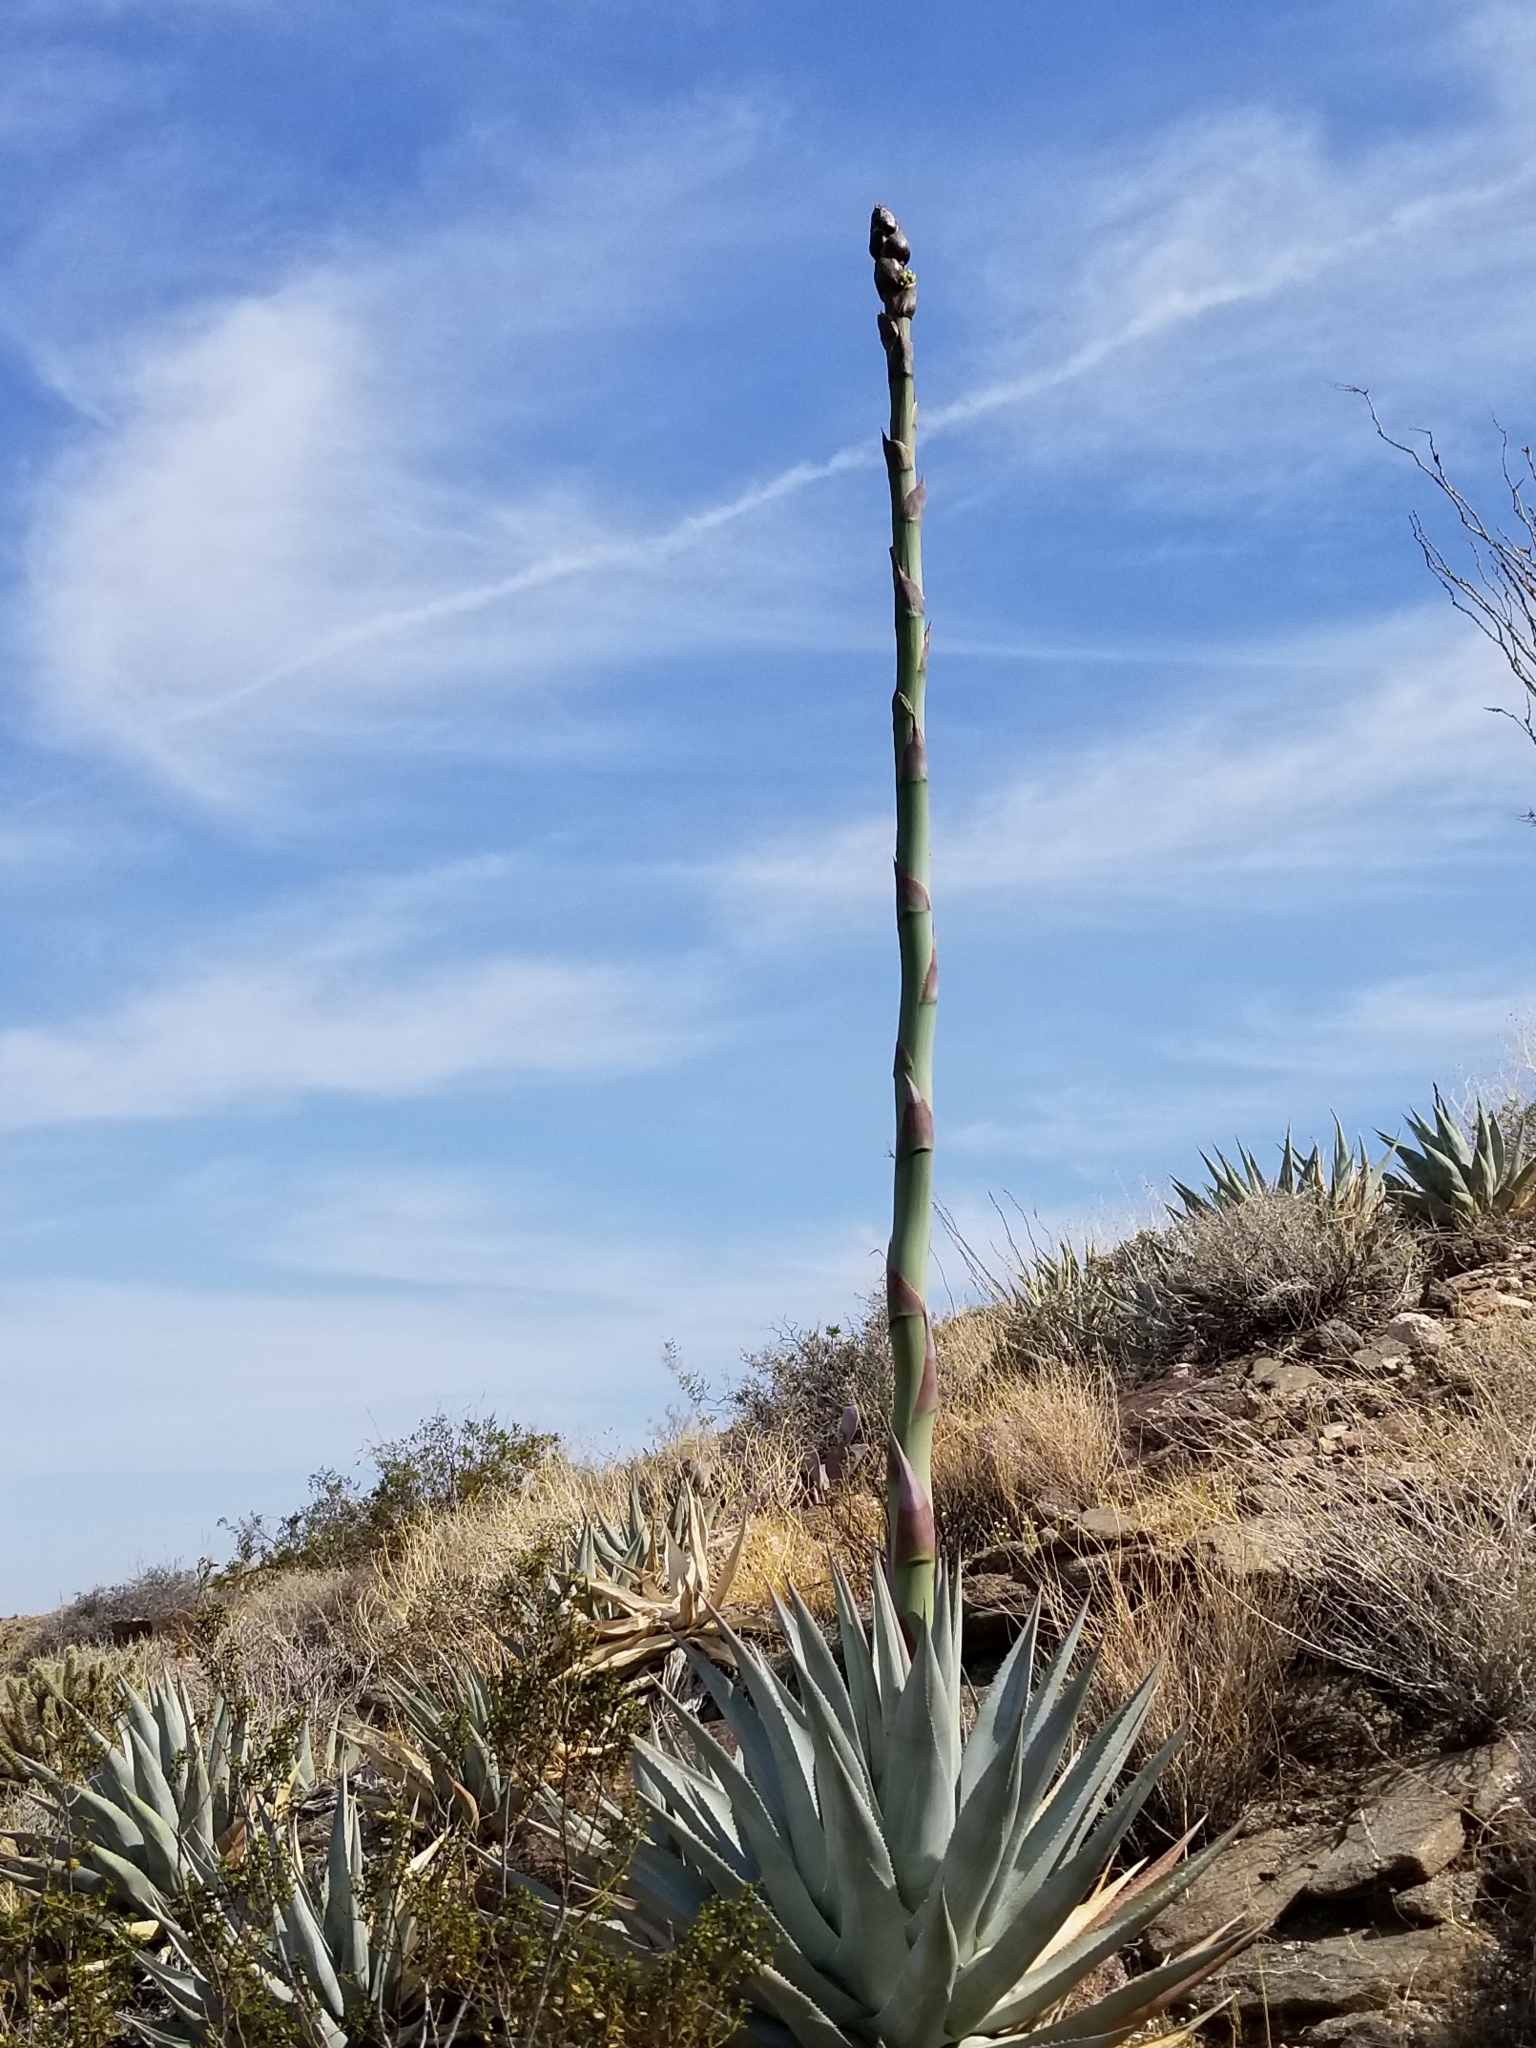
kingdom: Plantae
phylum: Tracheophyta
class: Liliopsida
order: Asparagales
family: Asparagaceae
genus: Agave
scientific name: Agave deserti
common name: Desert agave
